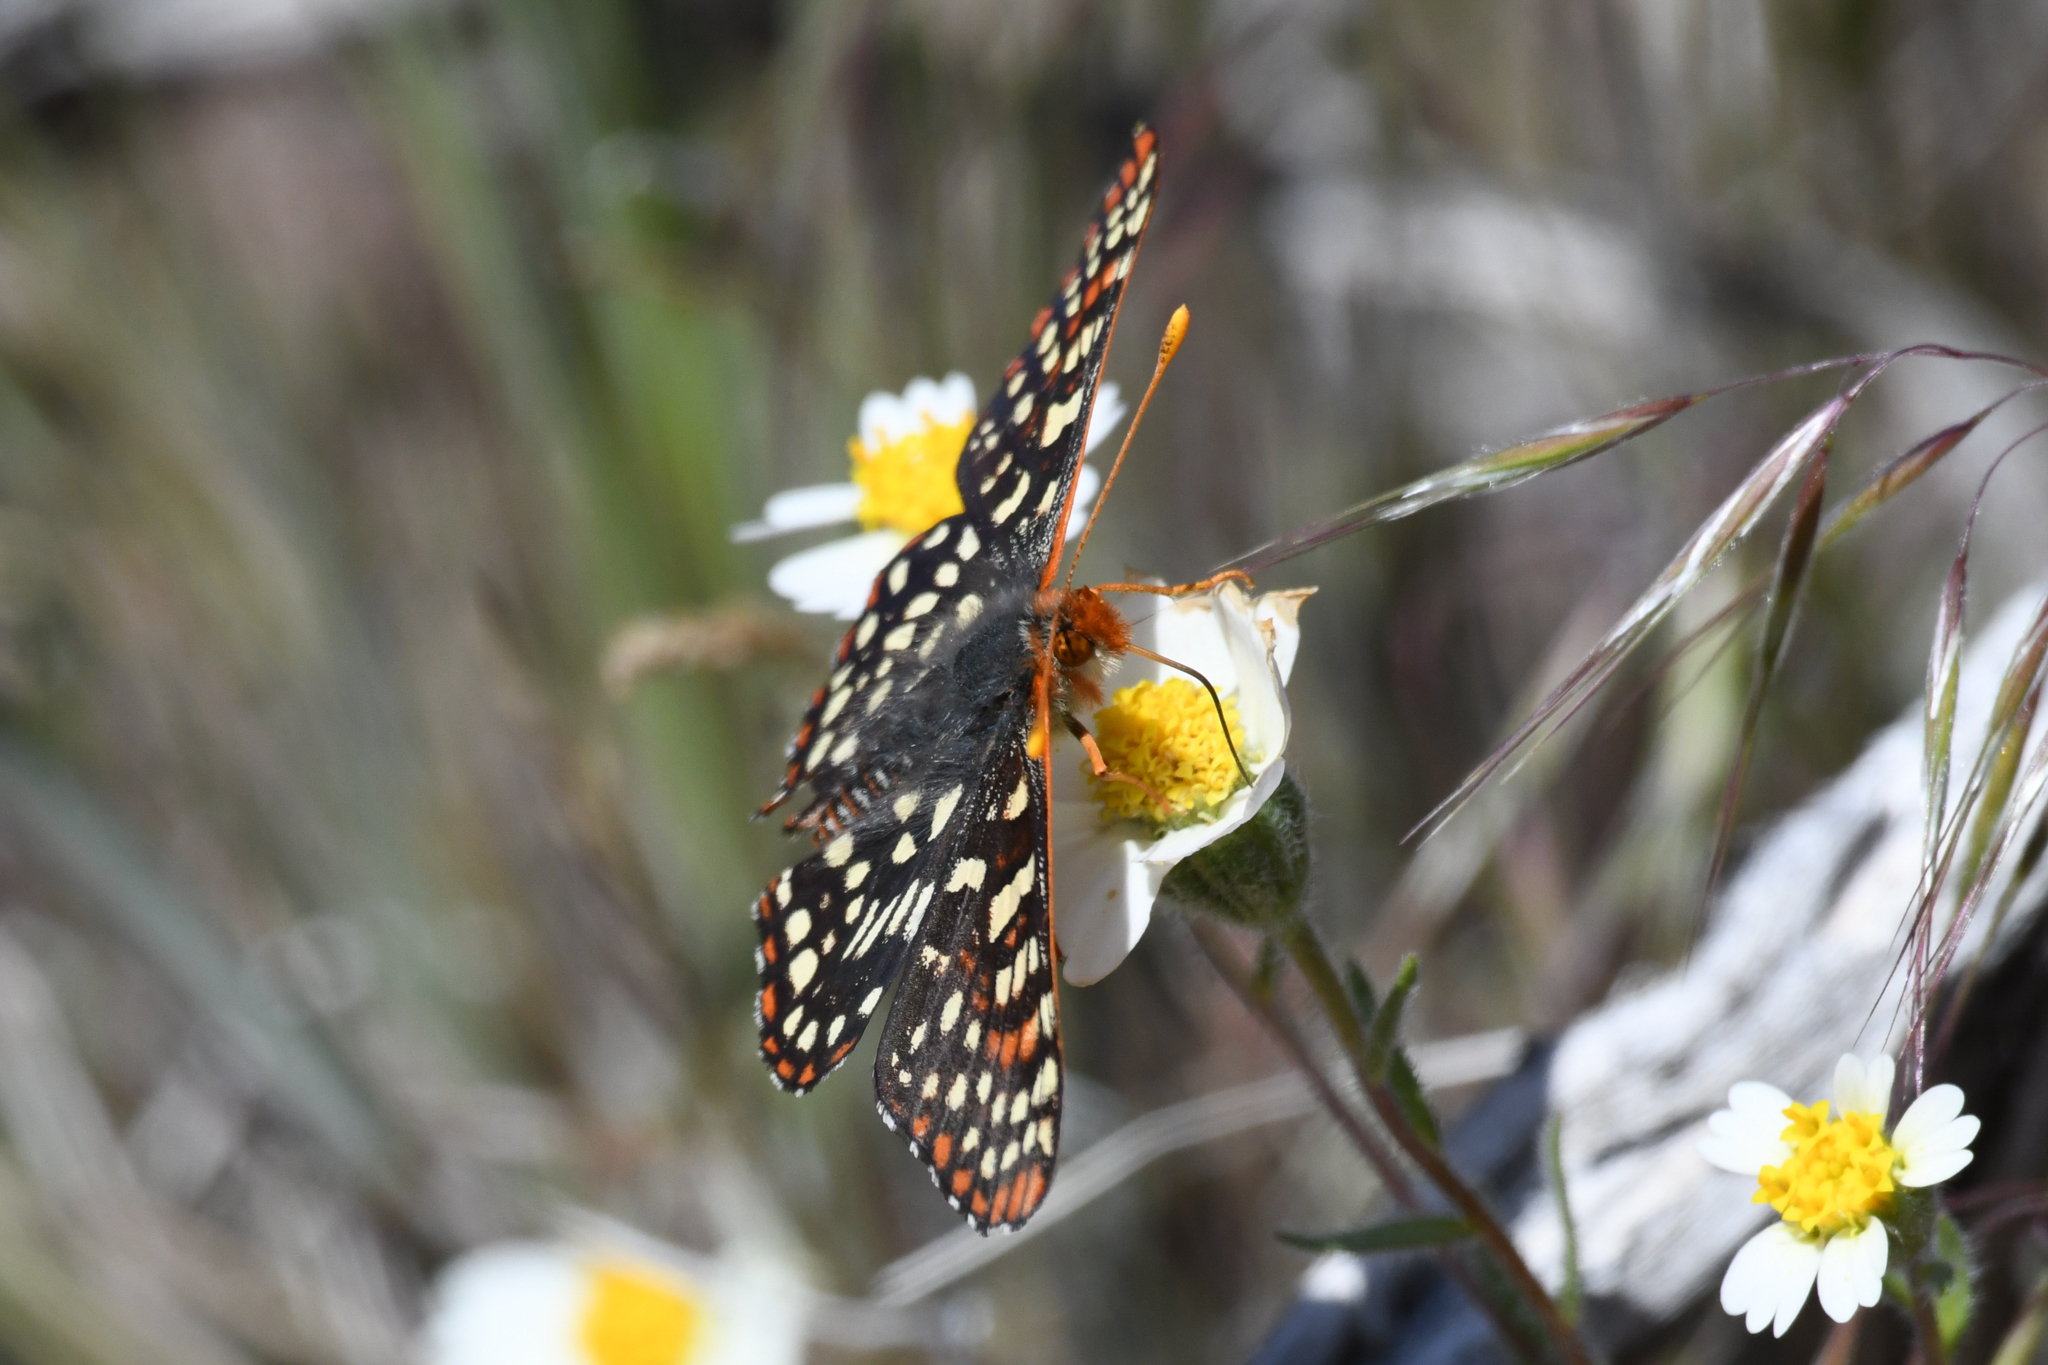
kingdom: Animalia
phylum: Arthropoda
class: Insecta
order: Lepidoptera
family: Nymphalidae
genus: Occidryas
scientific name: Occidryas chalcedona
